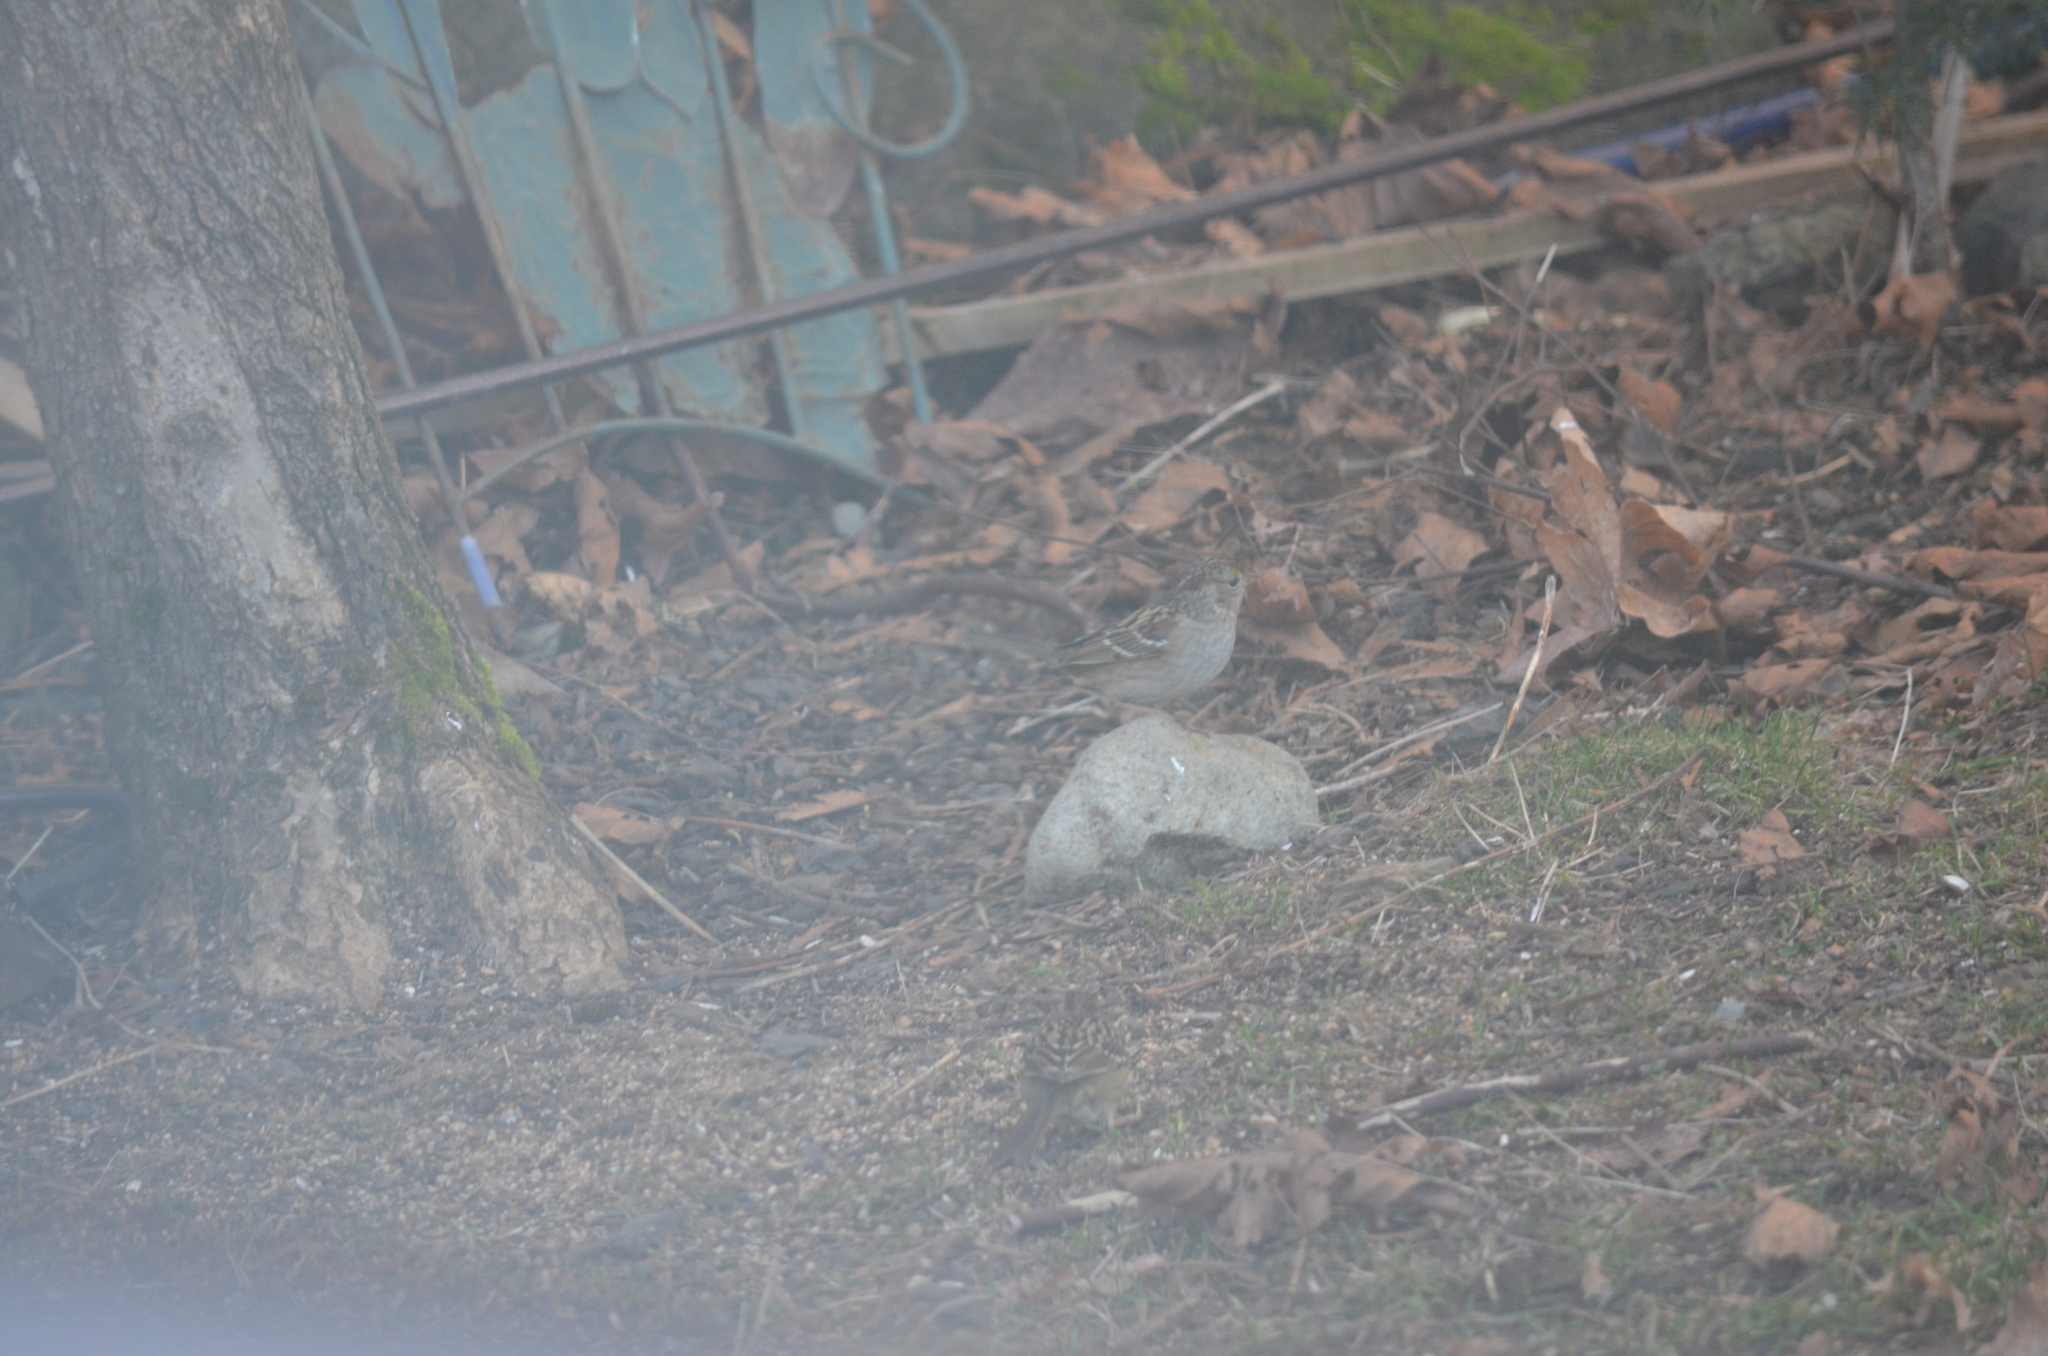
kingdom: Animalia
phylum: Chordata
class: Aves
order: Passeriformes
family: Passerellidae
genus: Zonotrichia
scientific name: Zonotrichia atricapilla
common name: Golden-crowned sparrow
